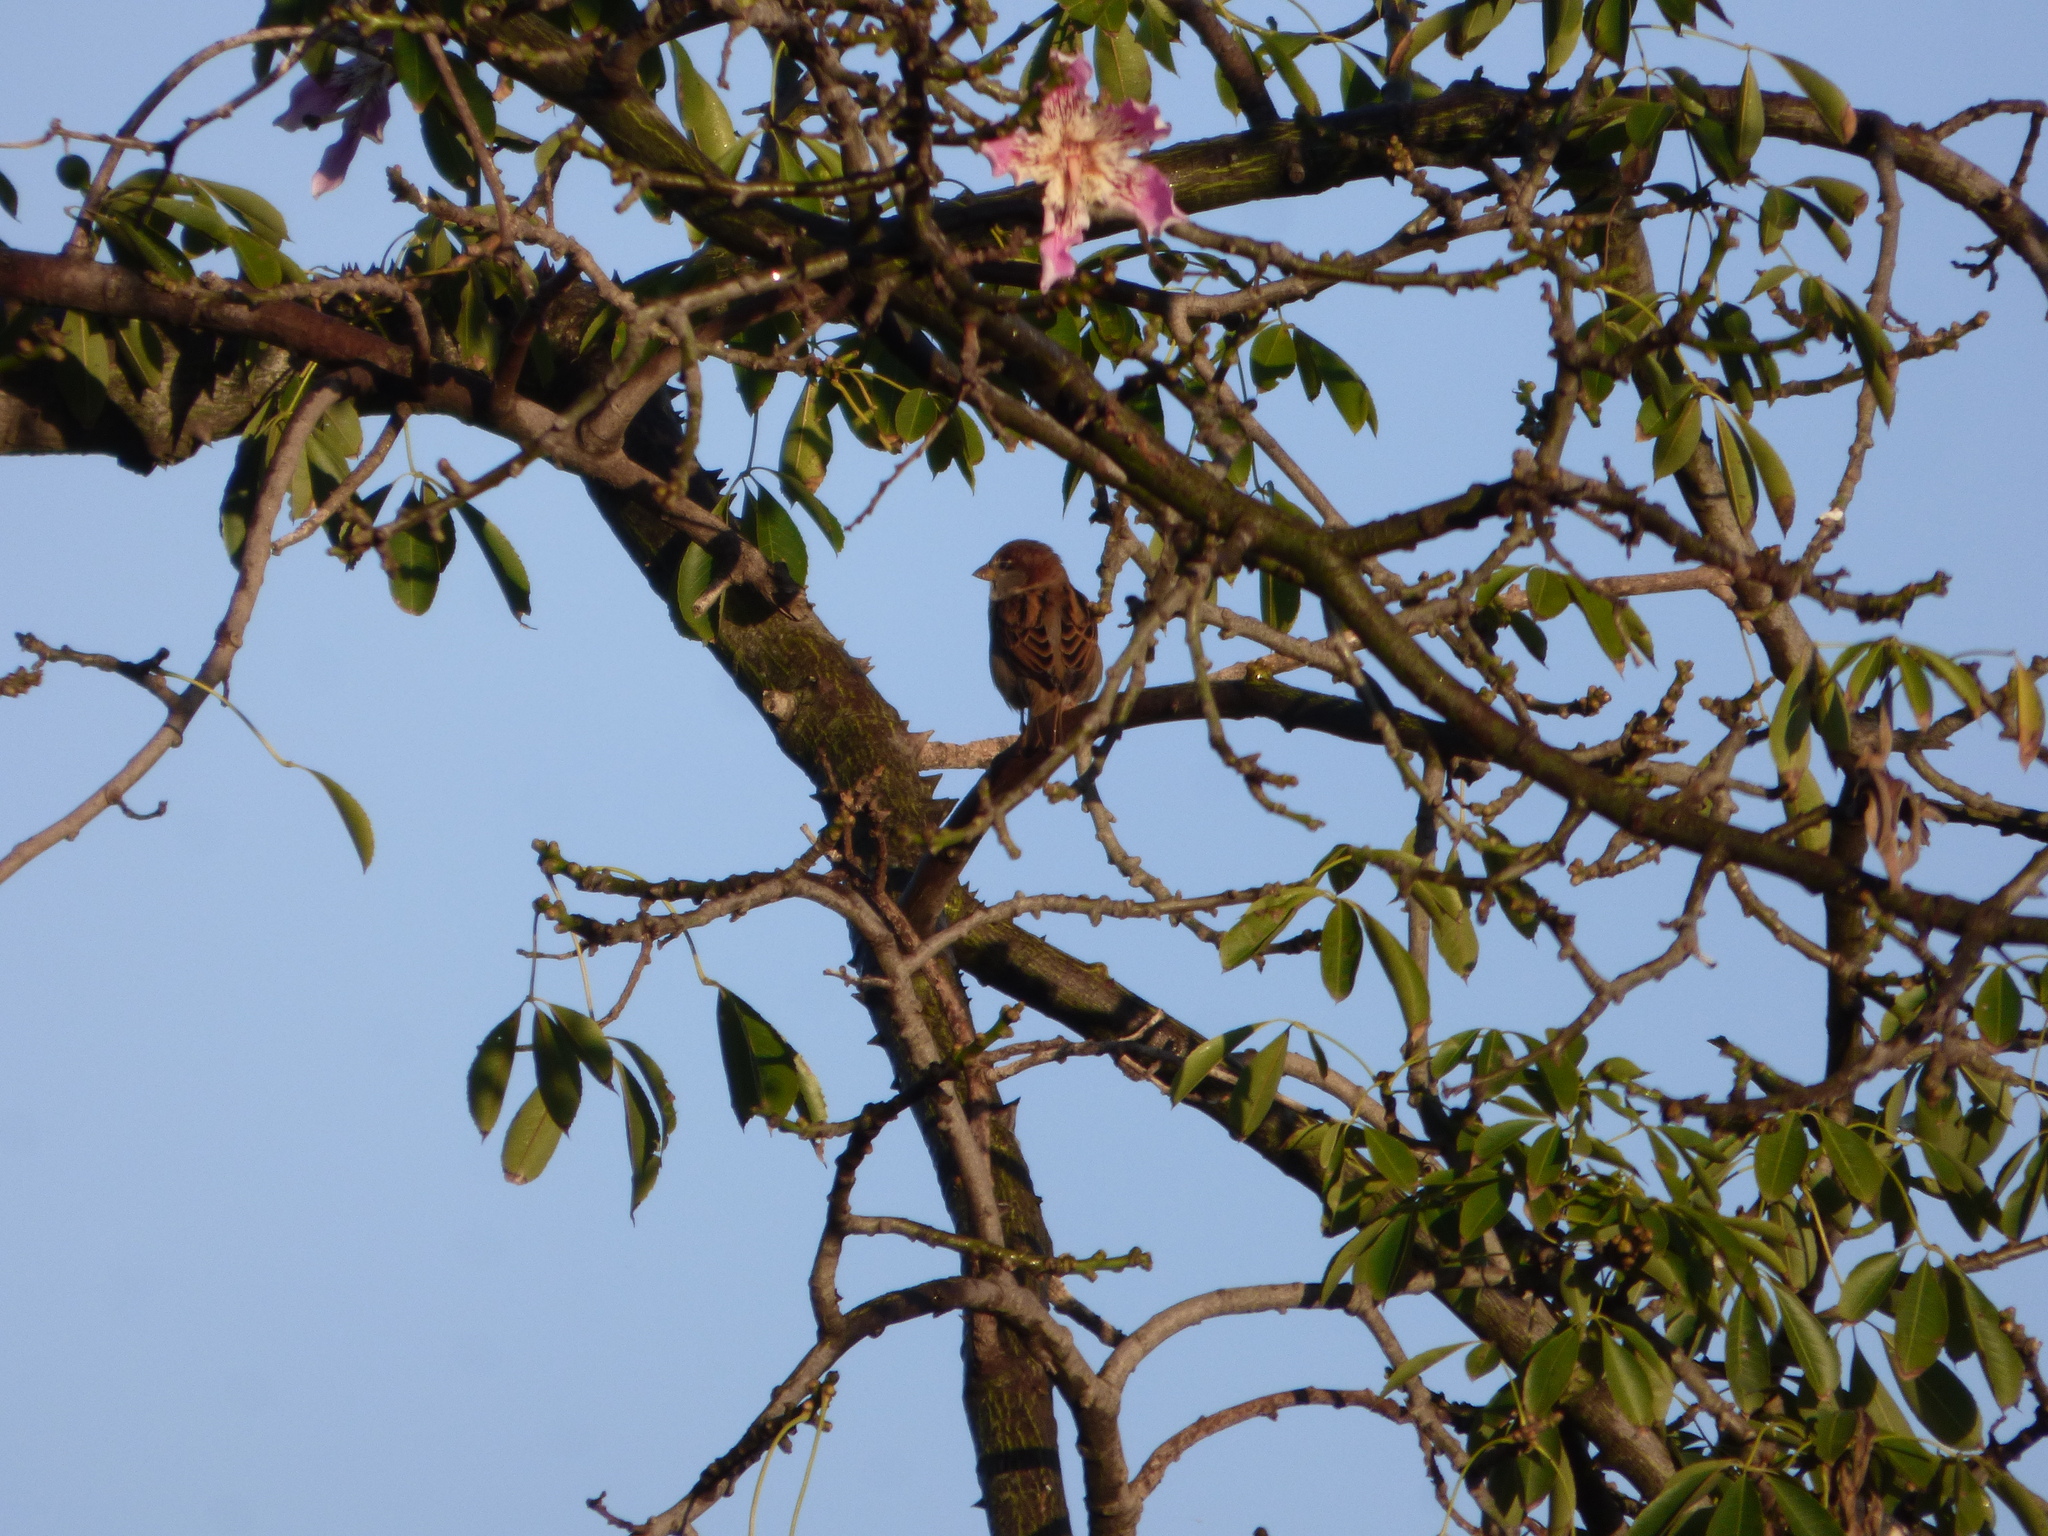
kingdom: Animalia
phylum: Chordata
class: Aves
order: Passeriformes
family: Passeridae
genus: Passer
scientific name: Passer domesticus
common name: House sparrow
